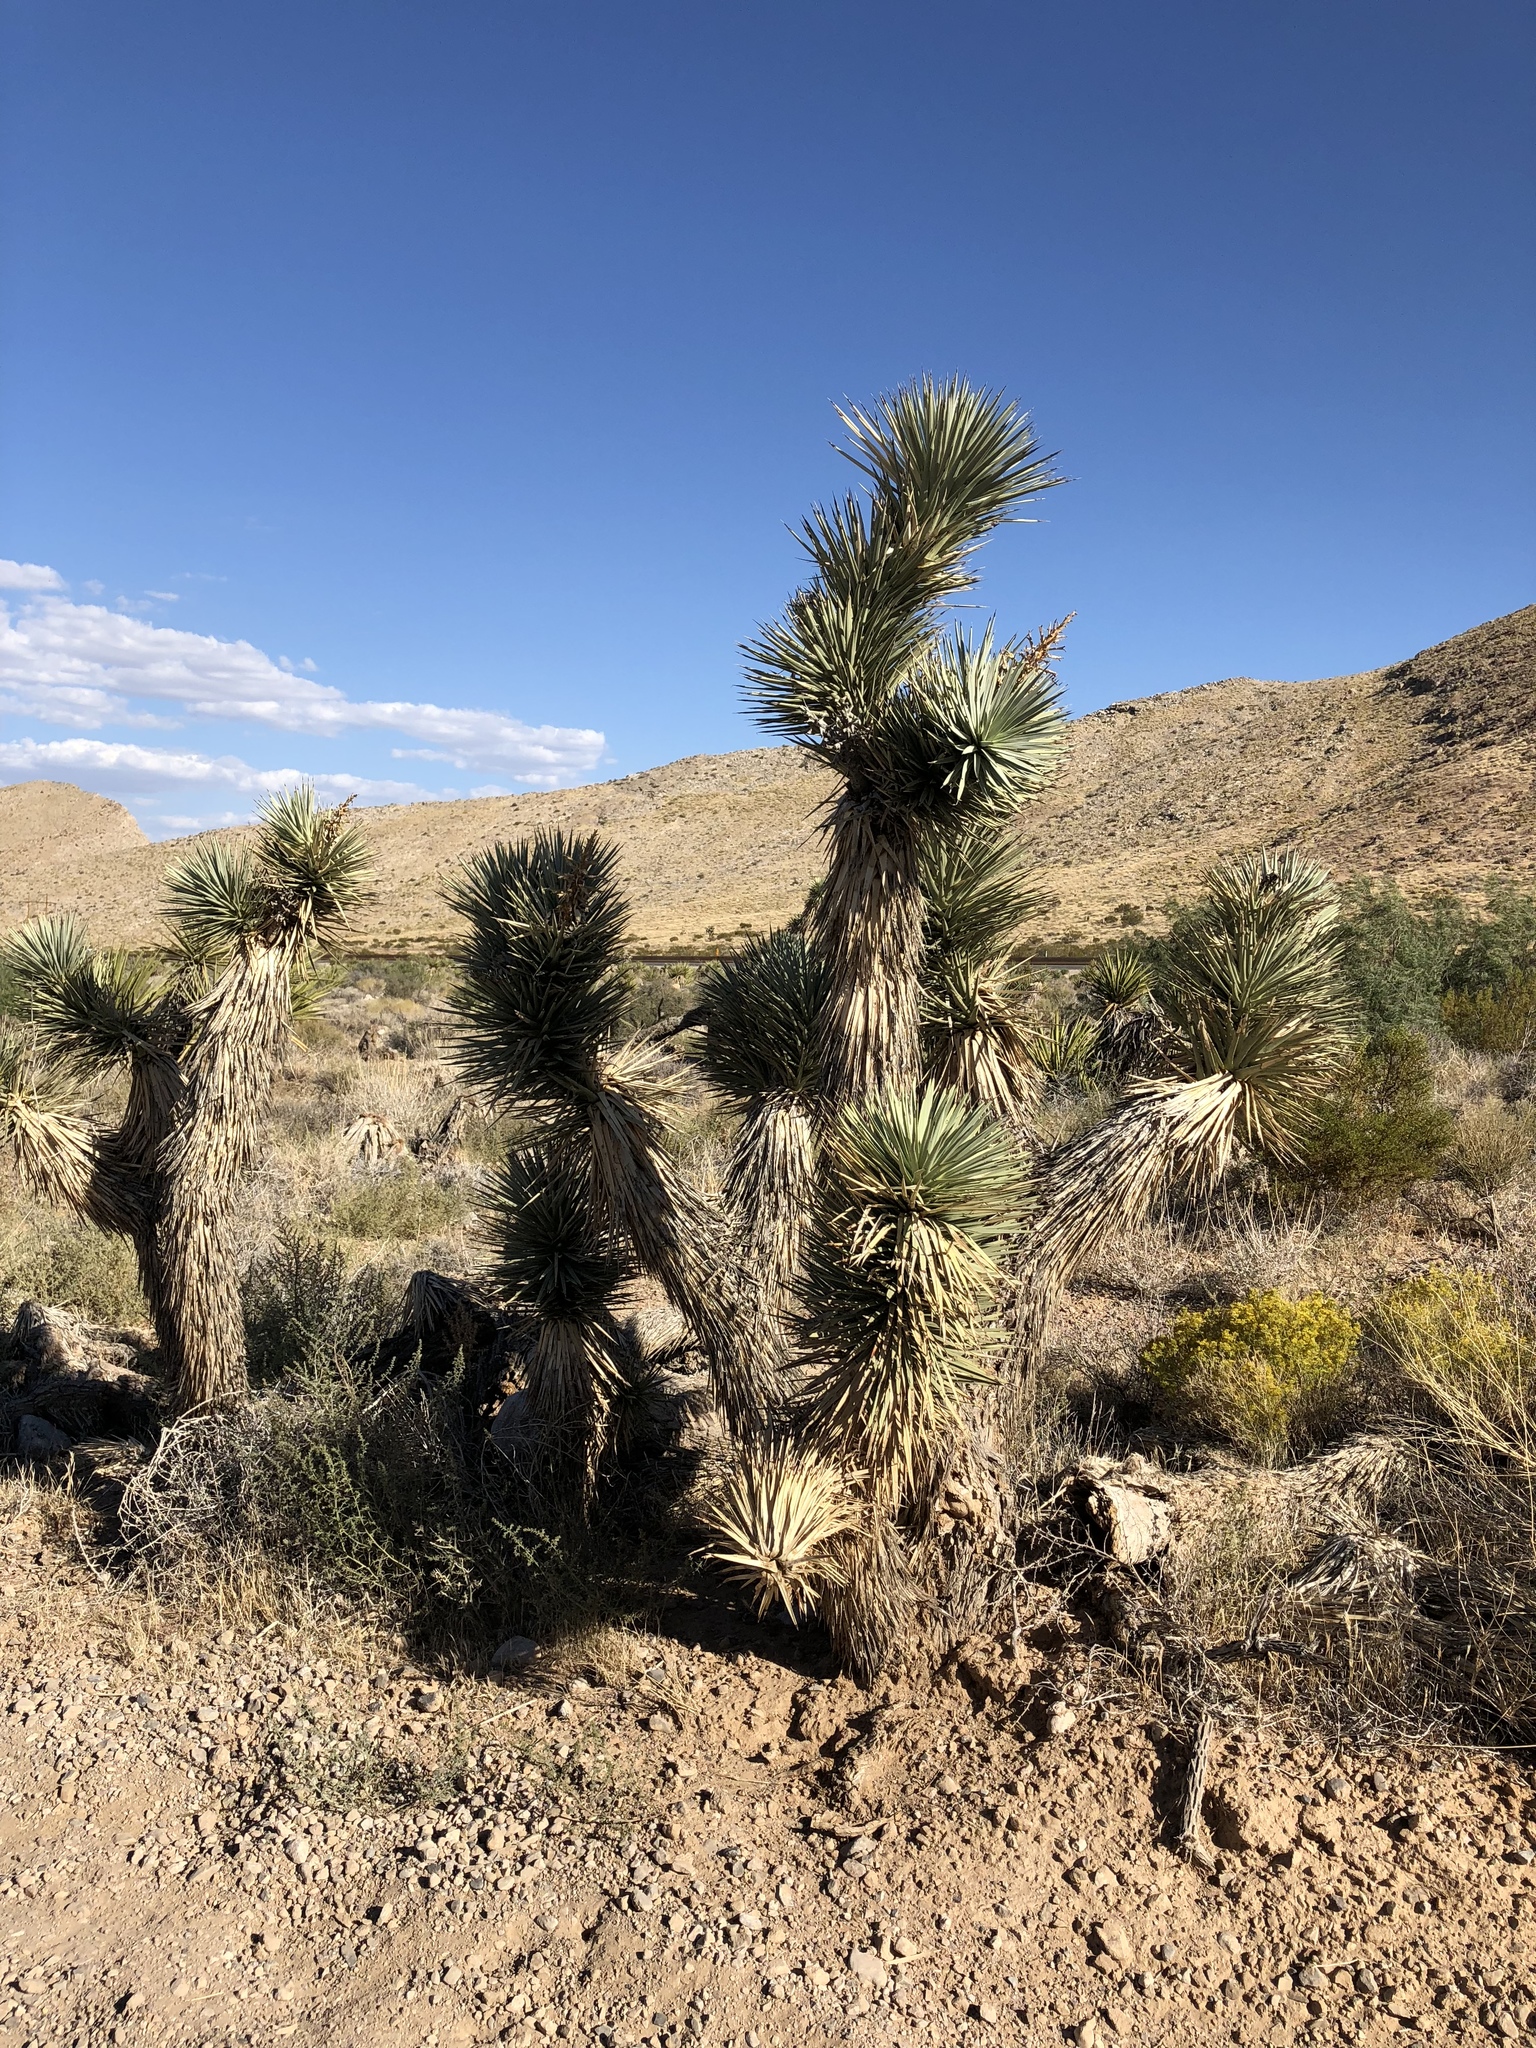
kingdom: Plantae
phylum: Tracheophyta
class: Liliopsida
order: Asparagales
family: Asparagaceae
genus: Yucca
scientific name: Yucca brevifolia
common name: Joshua tree
